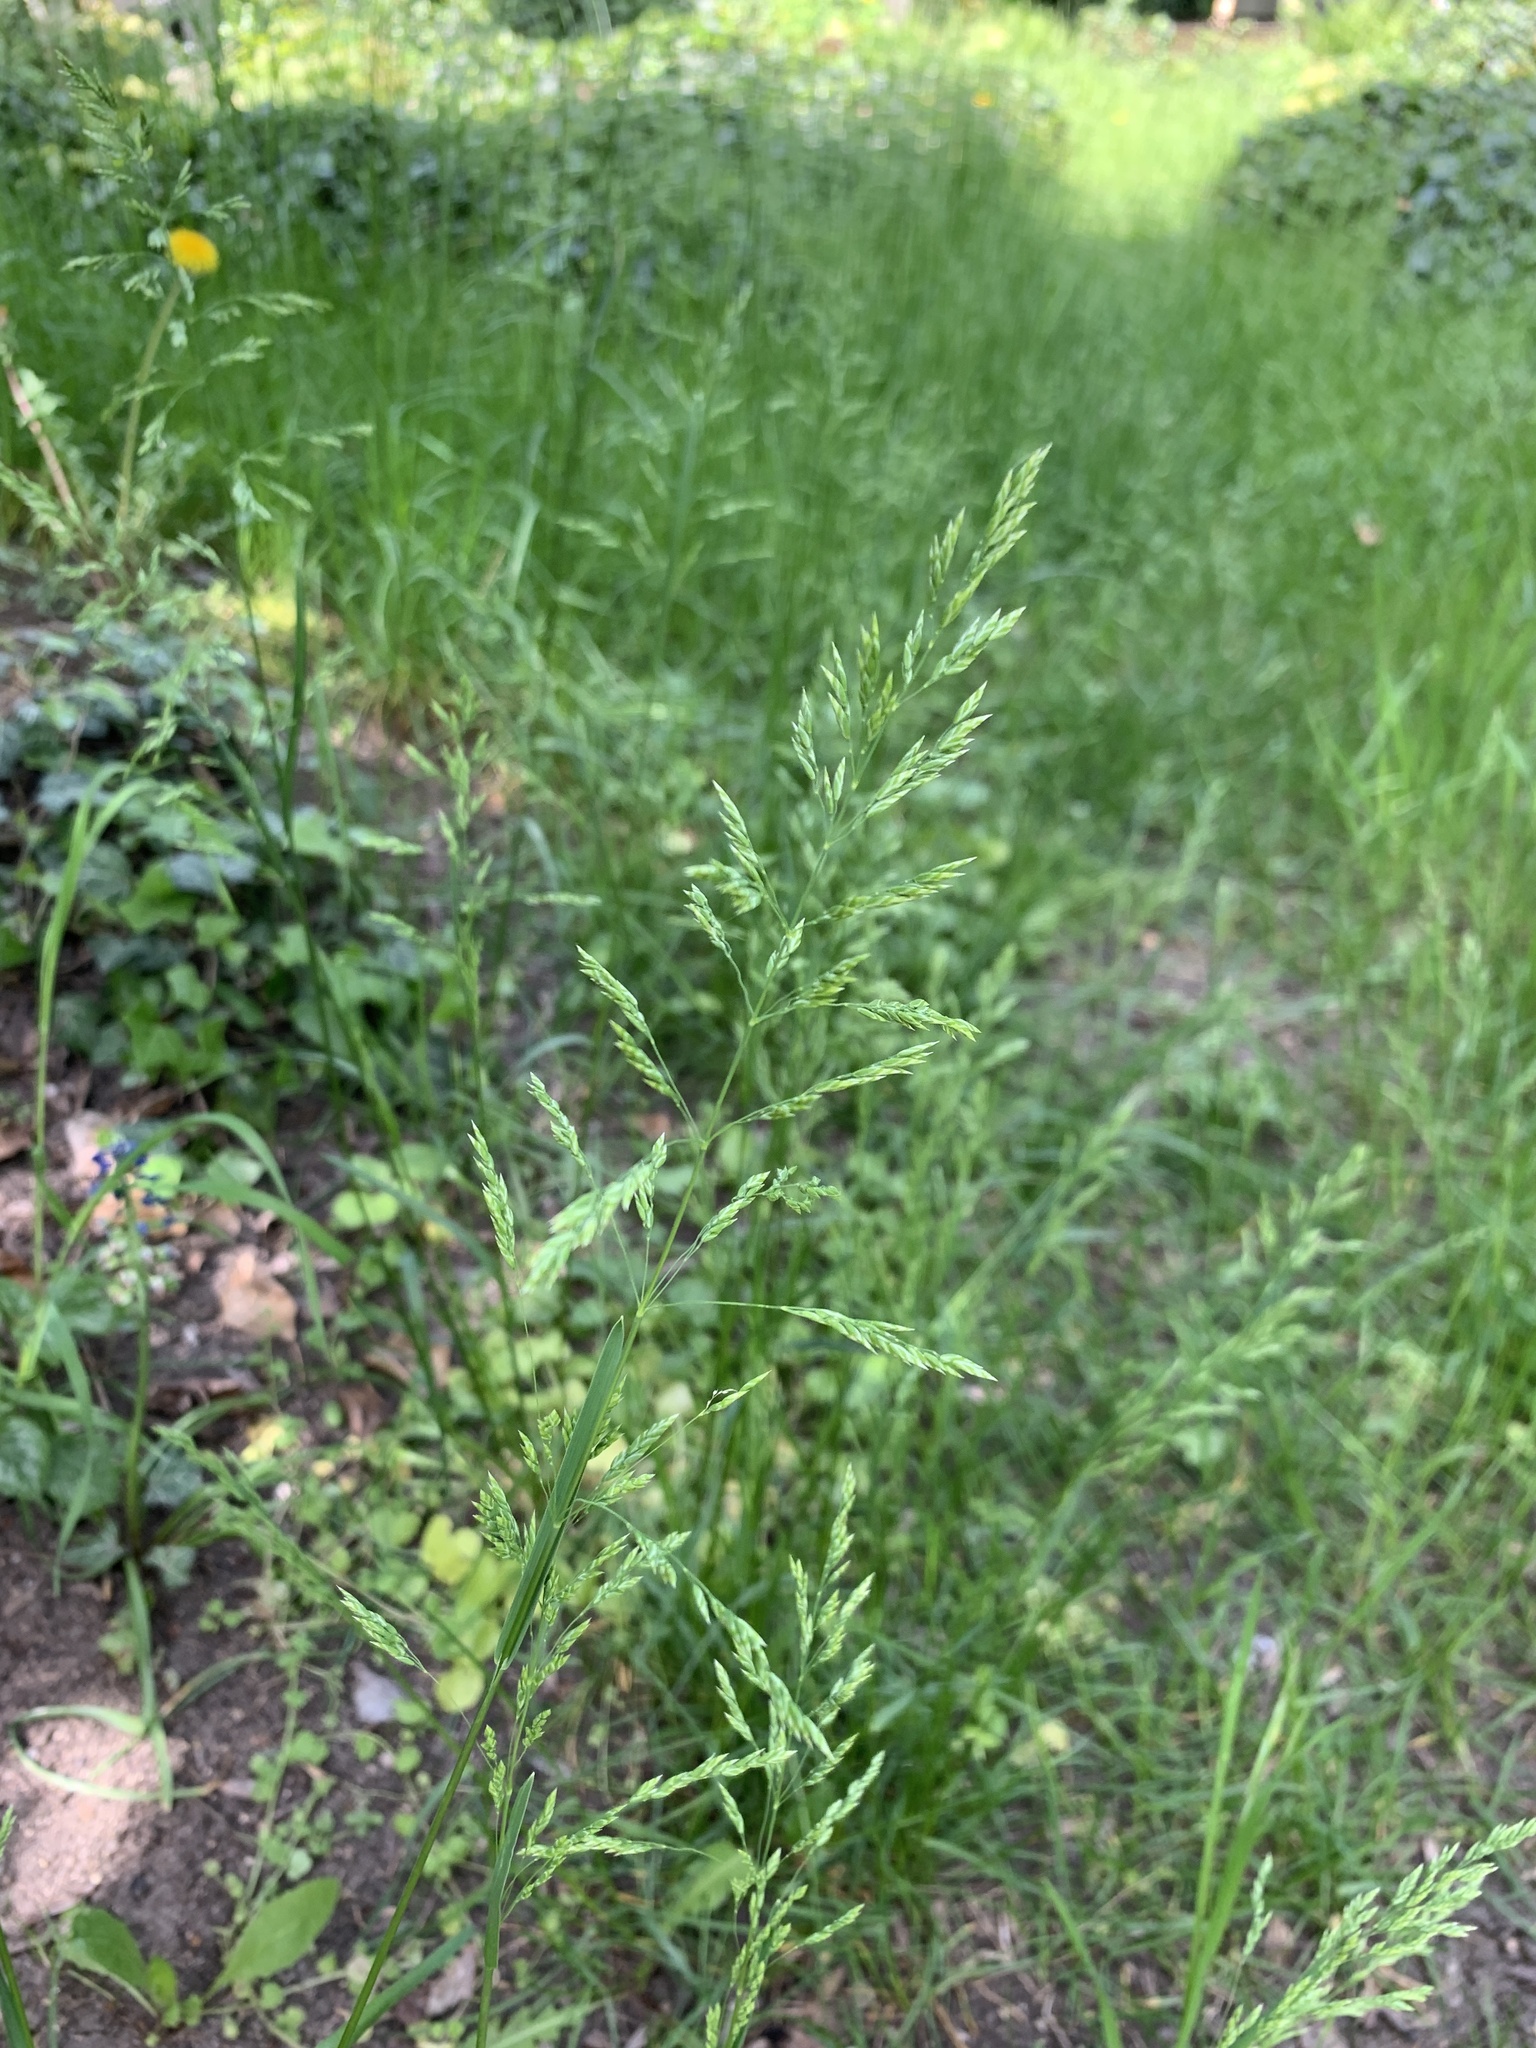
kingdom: Plantae
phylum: Tracheophyta
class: Liliopsida
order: Poales
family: Poaceae
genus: Poa
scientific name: Poa pratensis
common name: Kentucky bluegrass
